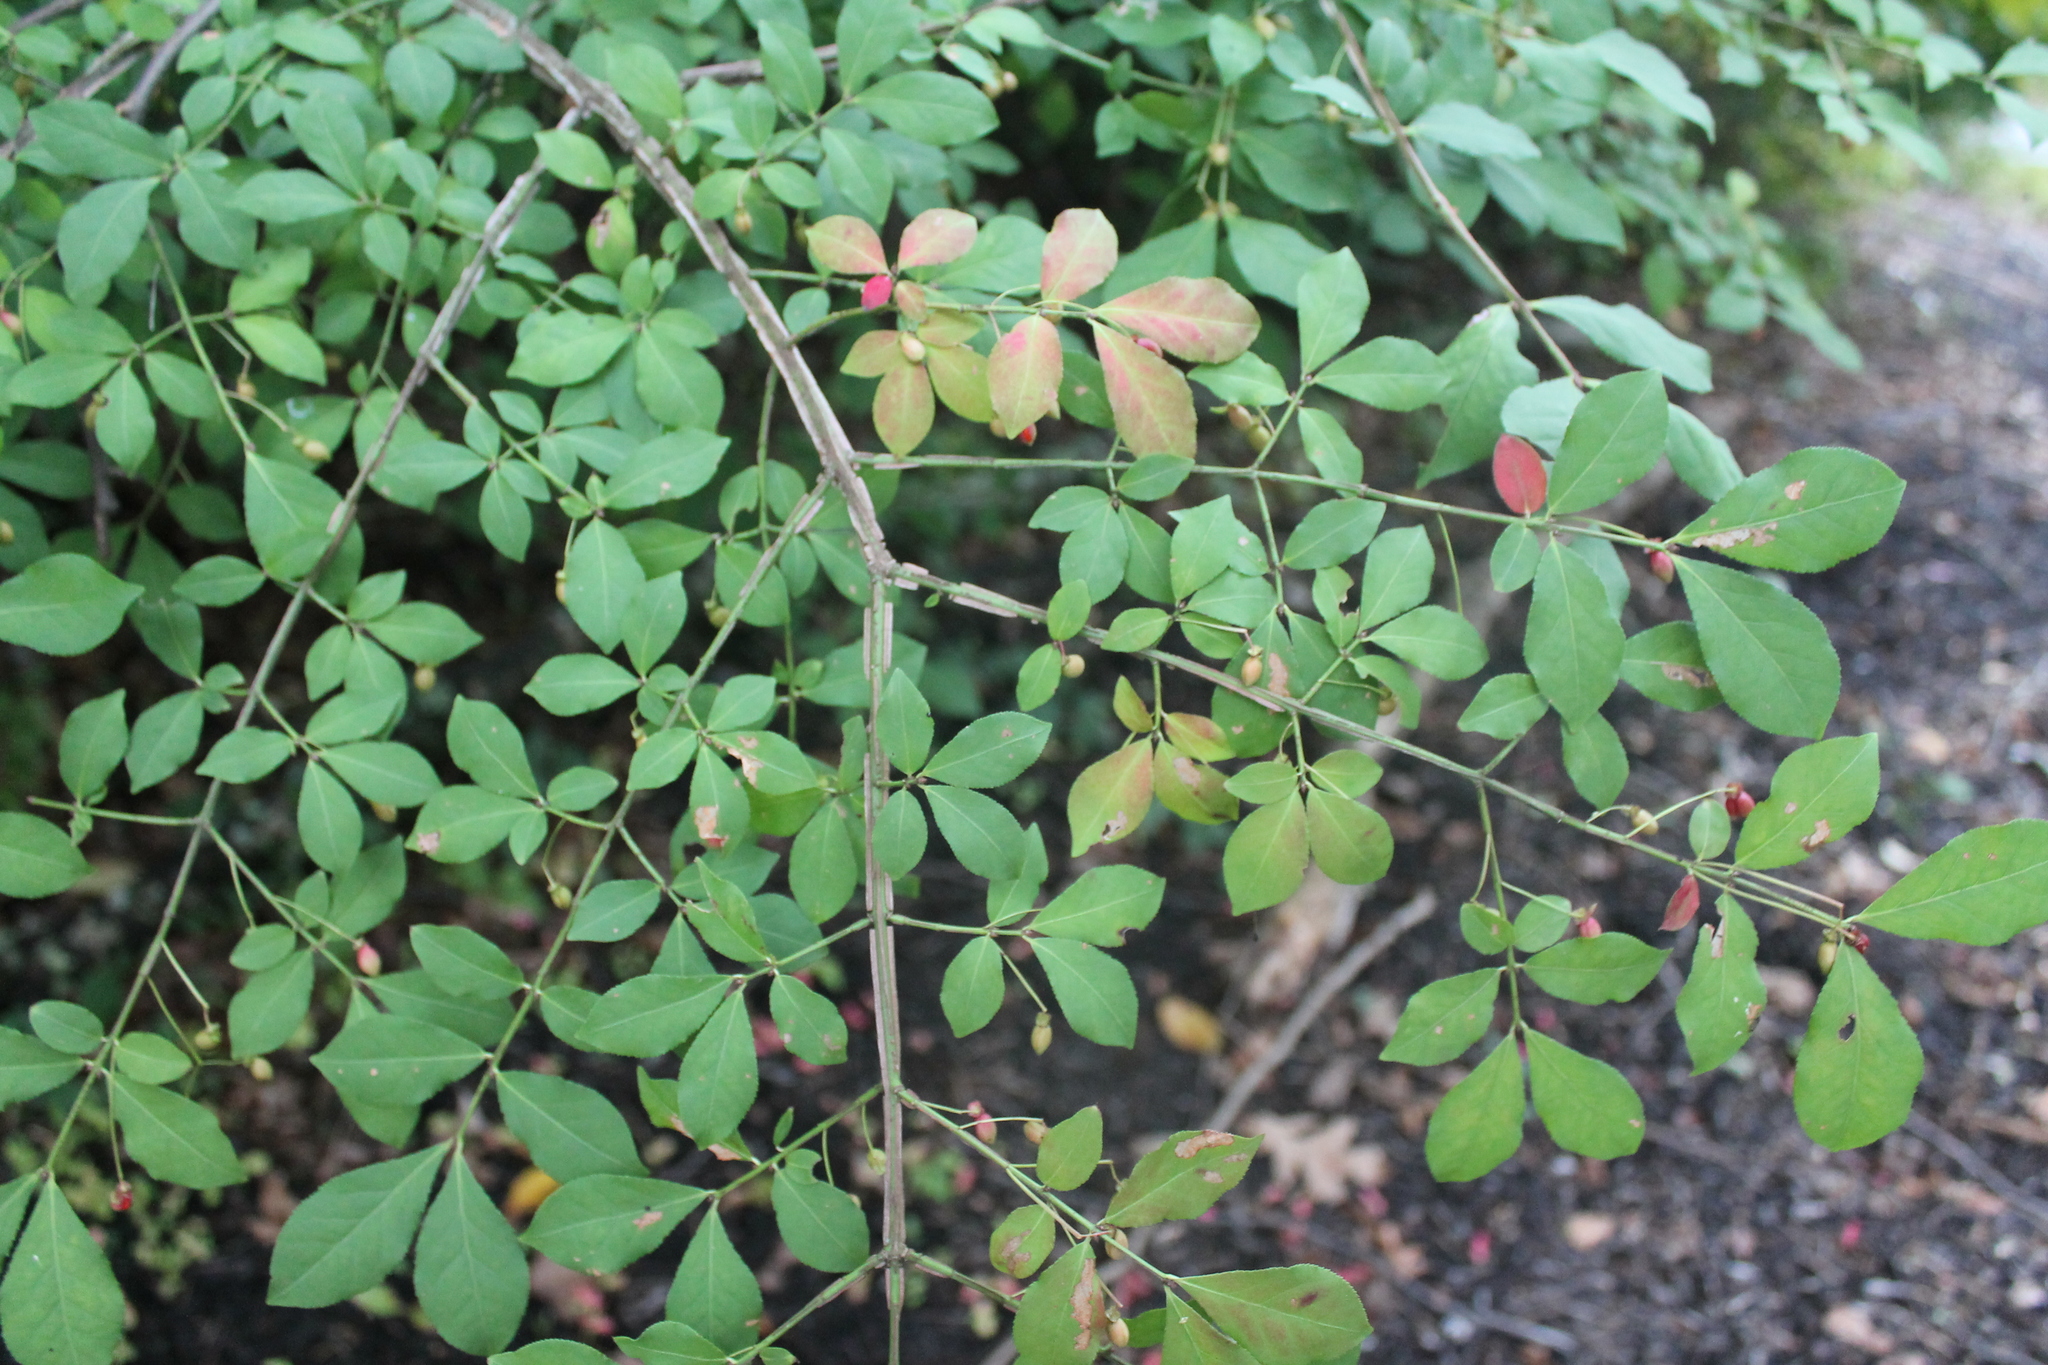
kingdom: Plantae
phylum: Tracheophyta
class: Magnoliopsida
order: Celastrales
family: Celastraceae
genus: Euonymus
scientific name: Euonymus alatus
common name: Winged euonymus
